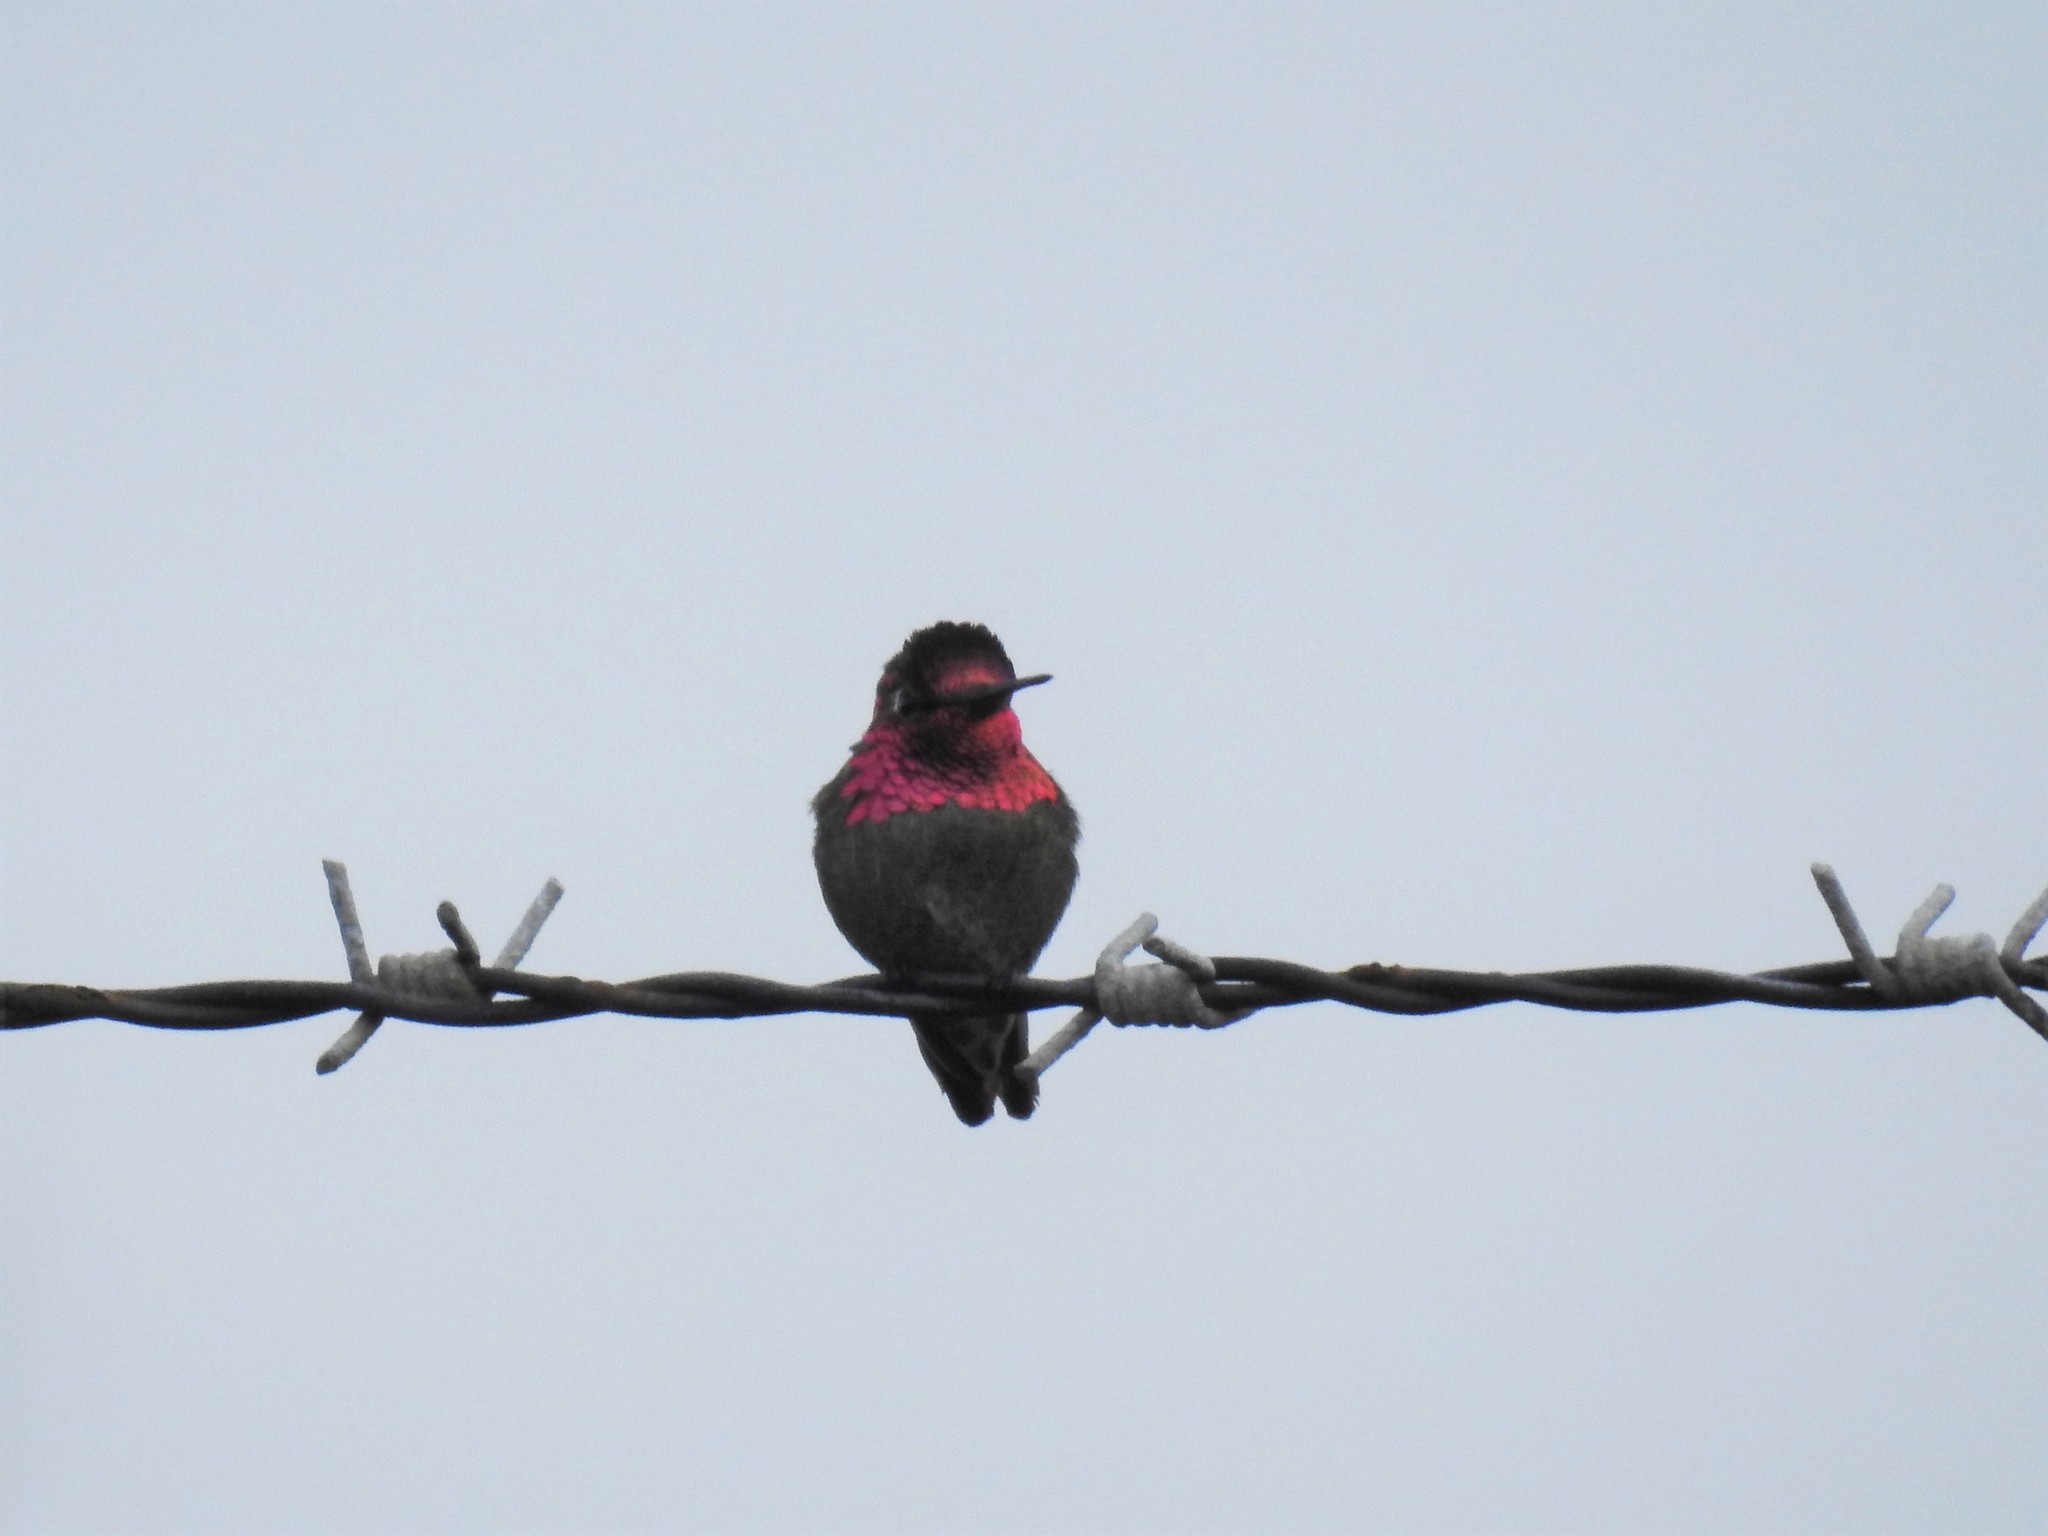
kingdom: Animalia
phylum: Chordata
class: Aves
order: Apodiformes
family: Trochilidae
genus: Calypte
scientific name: Calypte anna
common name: Anna's hummingbird
